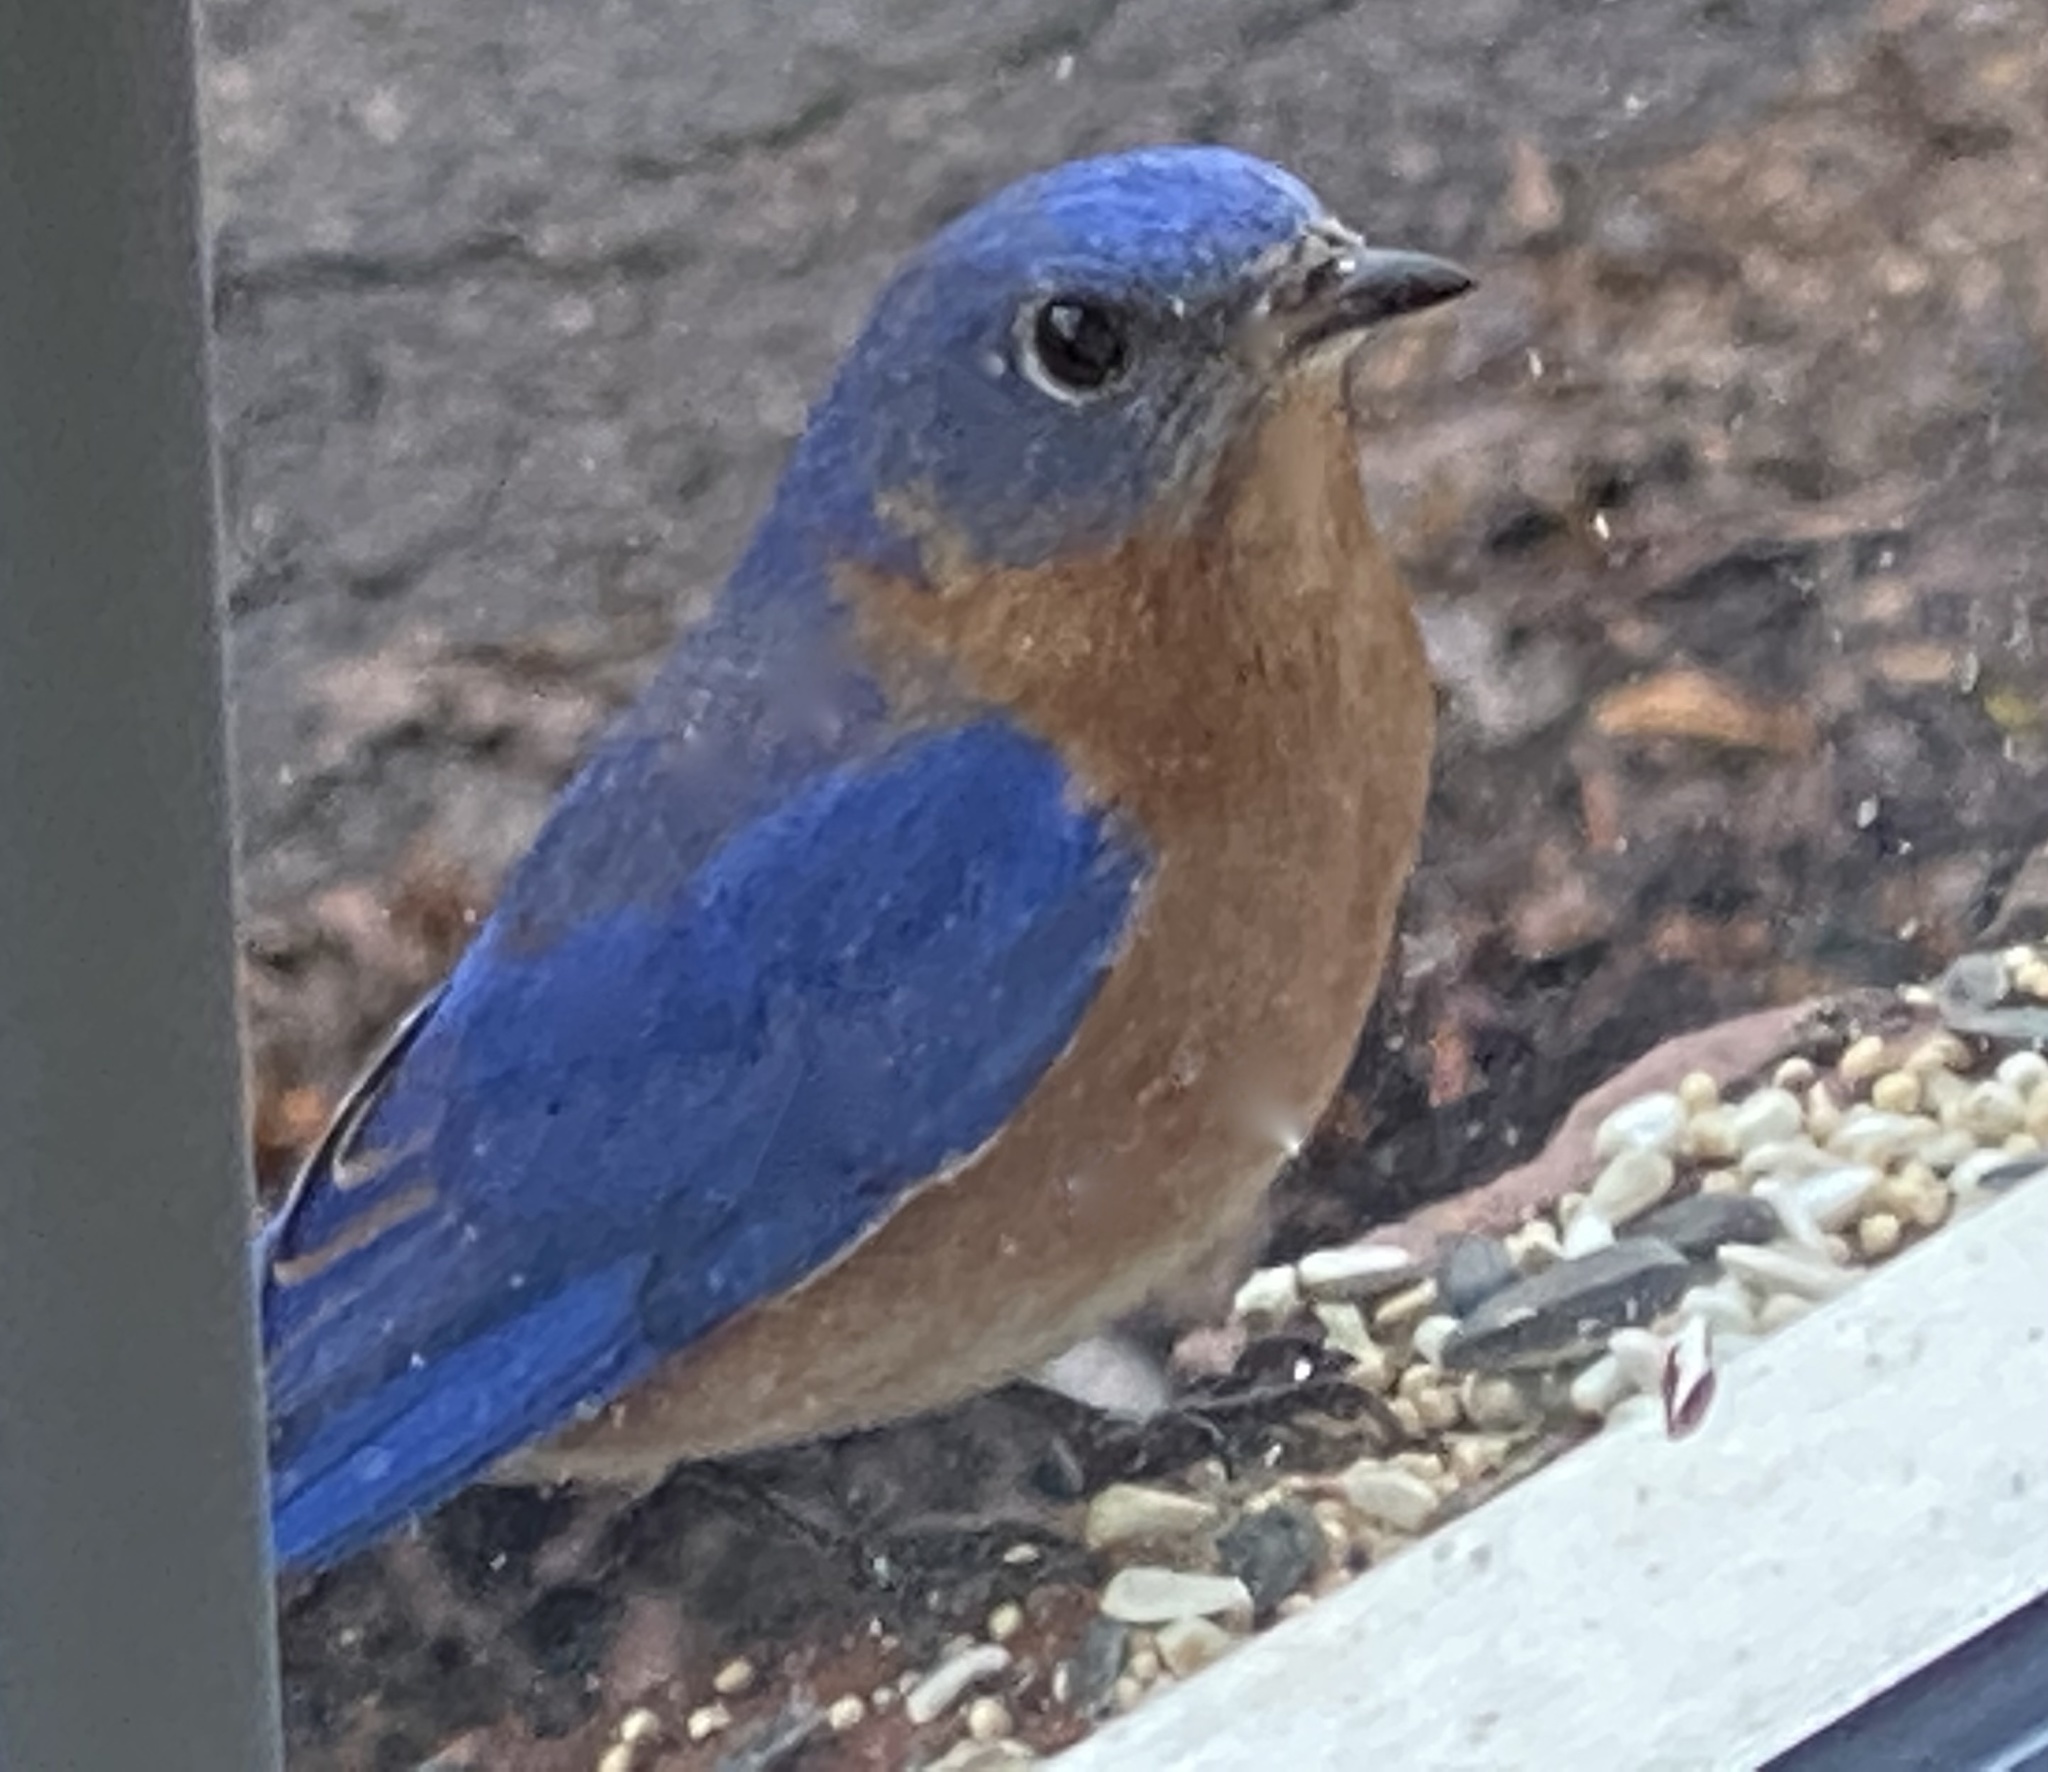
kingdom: Animalia
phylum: Chordata
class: Aves
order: Passeriformes
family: Turdidae
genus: Sialia
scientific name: Sialia sialis
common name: Eastern bluebird
